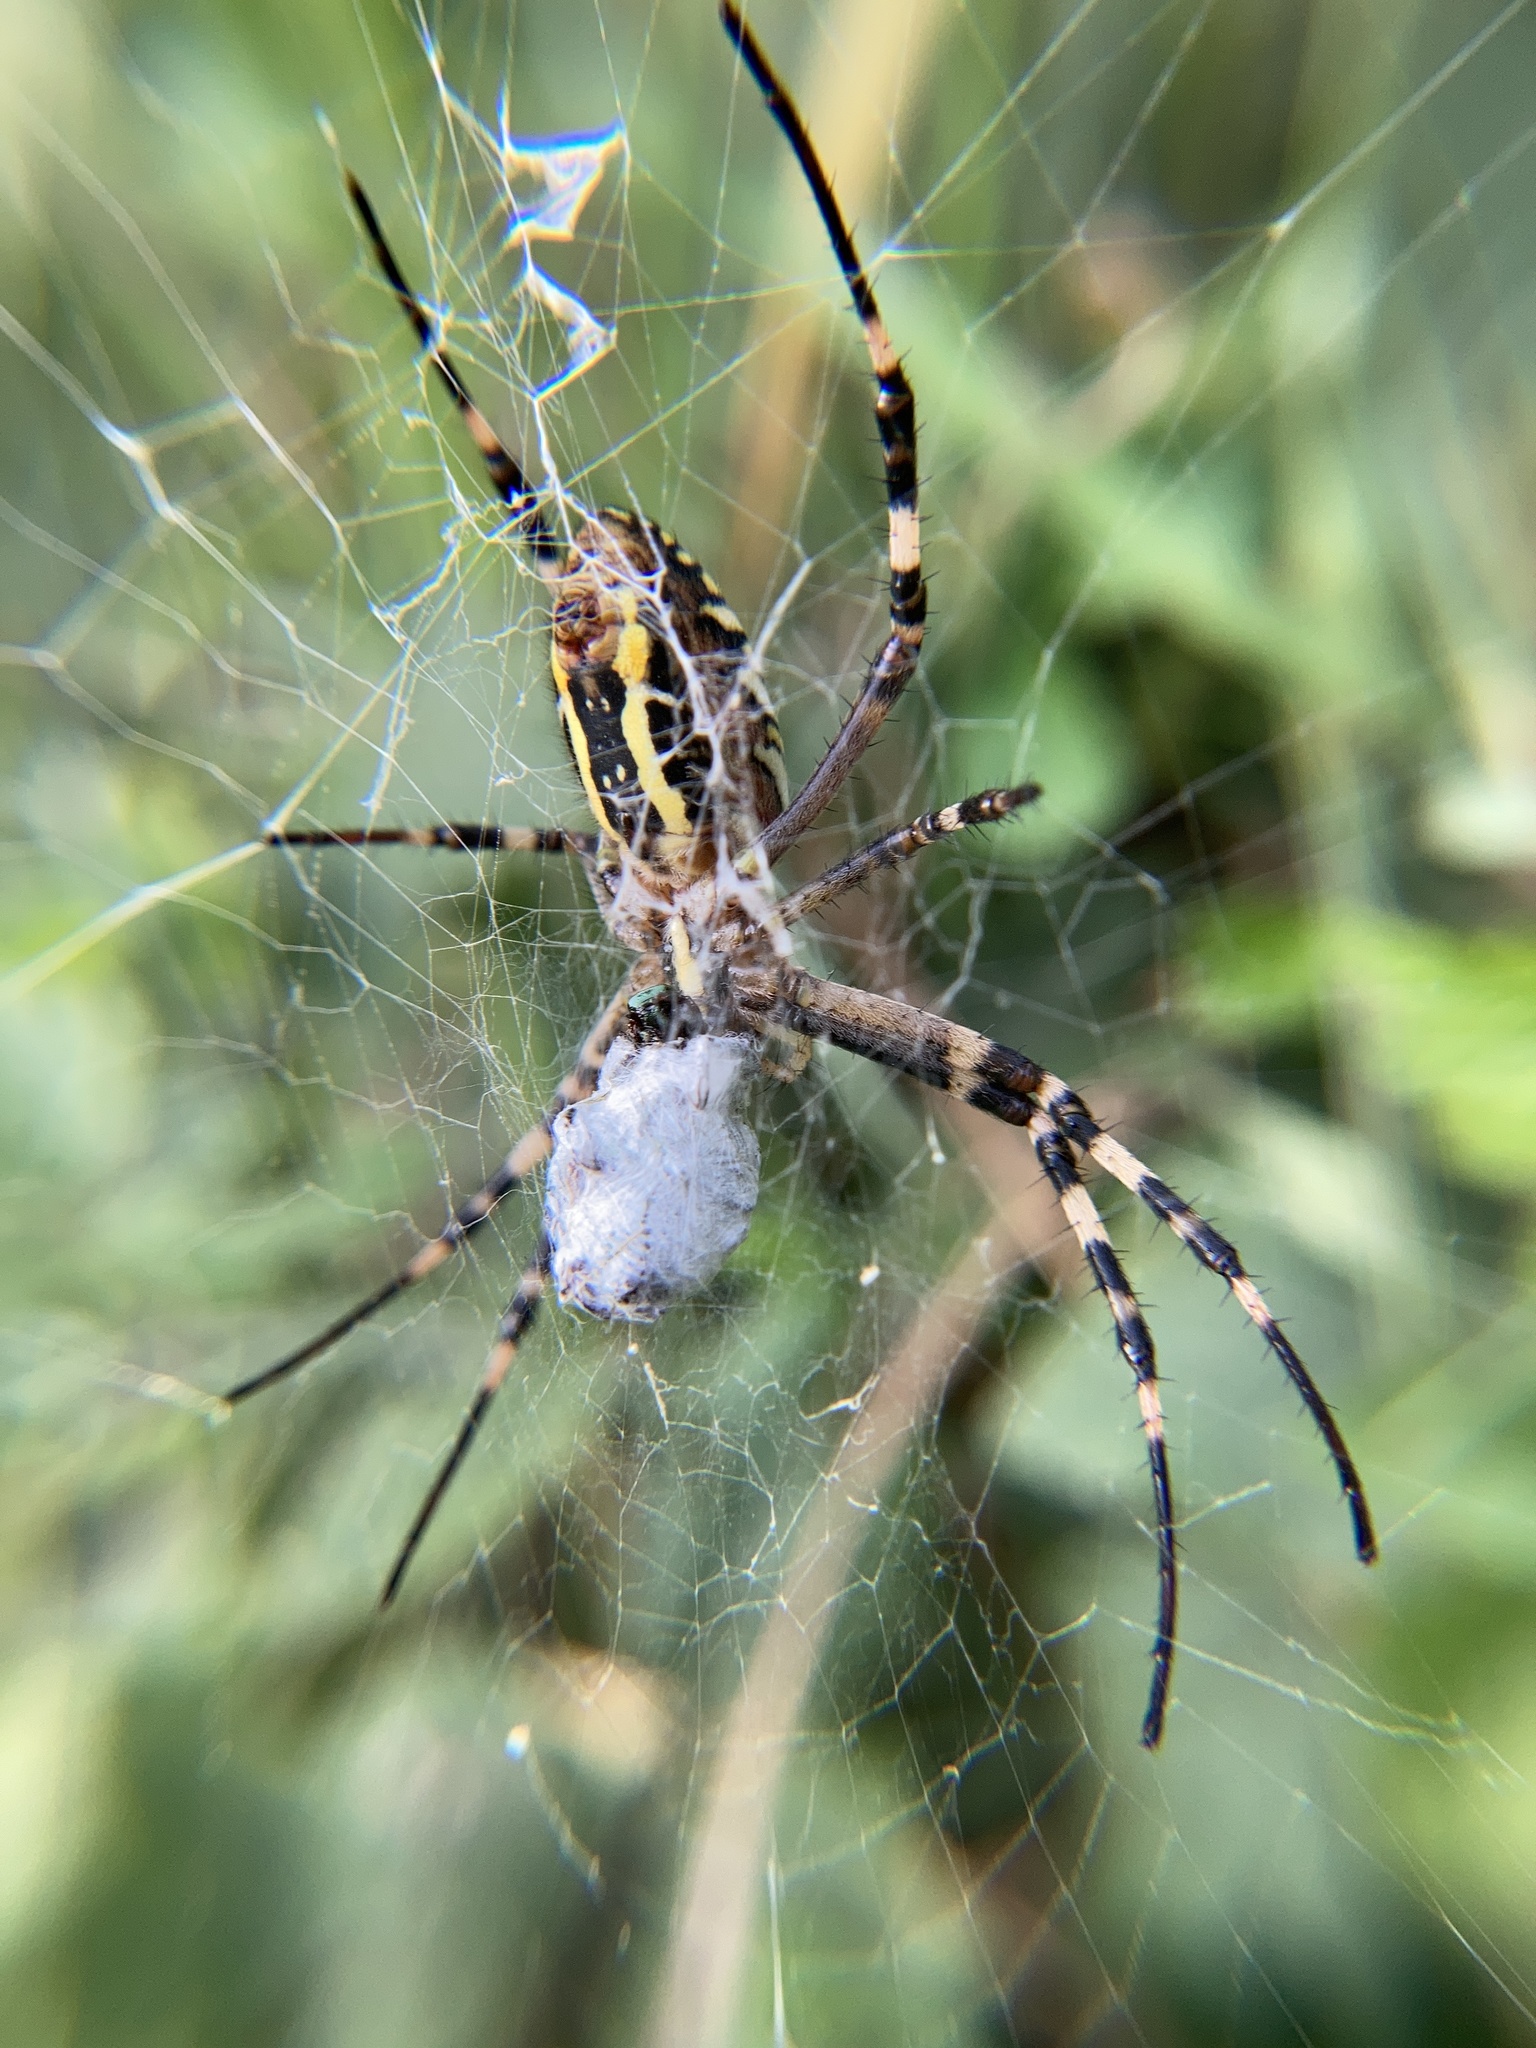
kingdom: Animalia
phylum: Arthropoda
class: Arachnida
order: Araneae
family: Araneidae
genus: Argiope
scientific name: Argiope bruennichi
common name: Wasp spider
